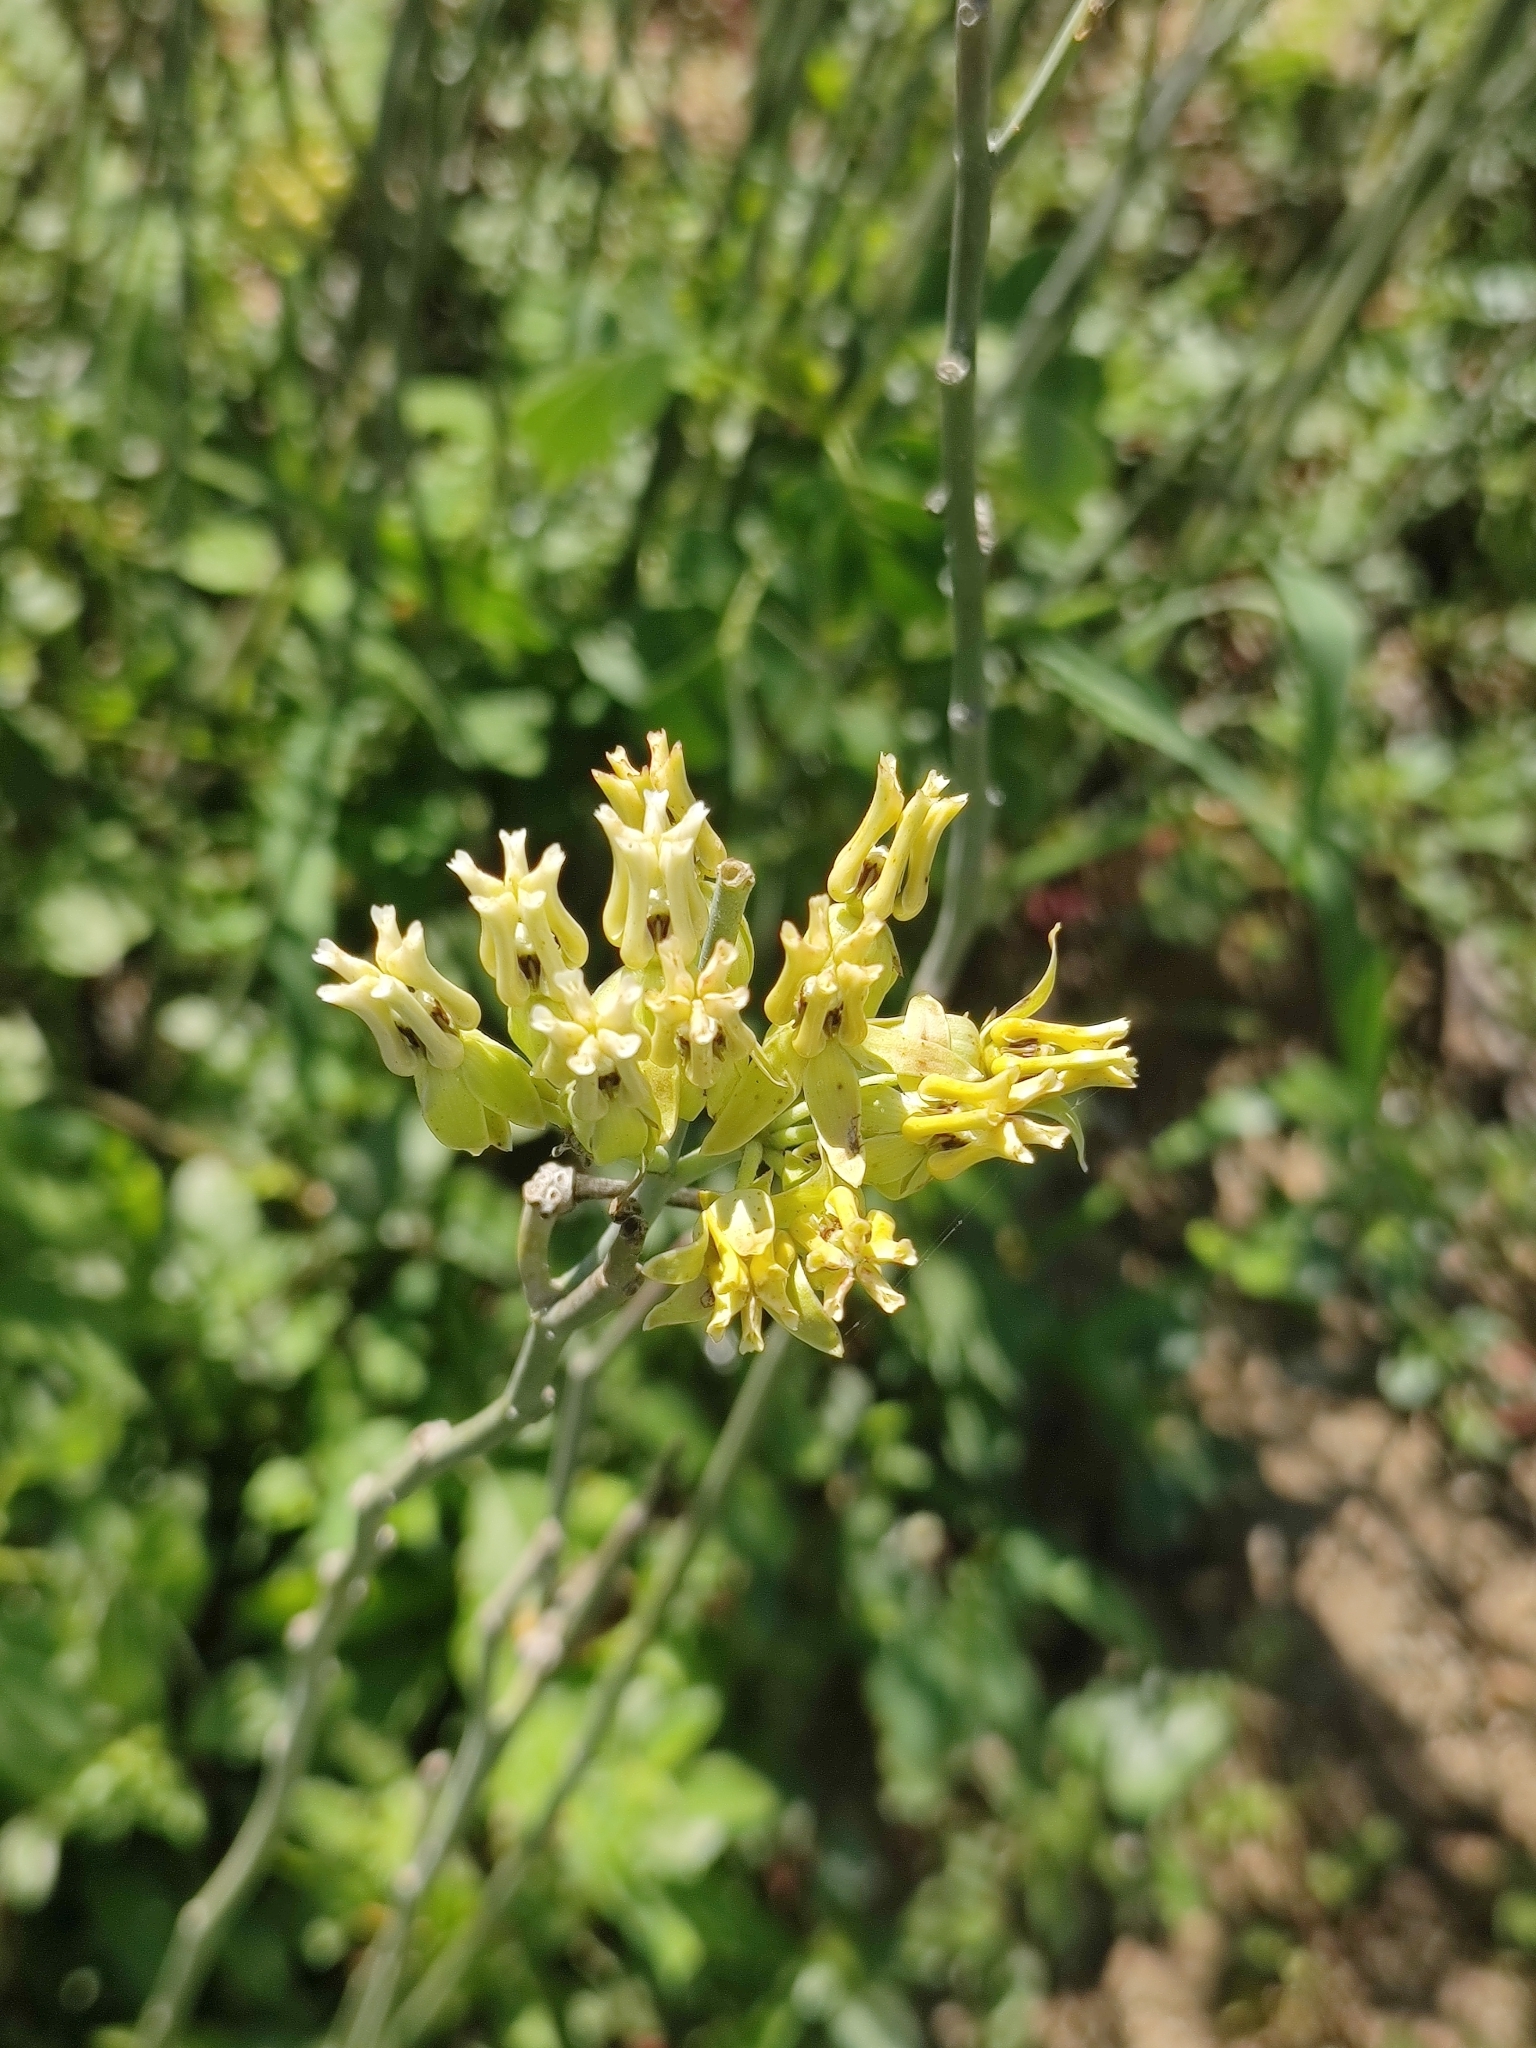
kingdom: Plantae
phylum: Tracheophyta
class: Magnoliopsida
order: Gentianales
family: Apocynaceae
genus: Asclepias
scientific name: Asclepias subulata
